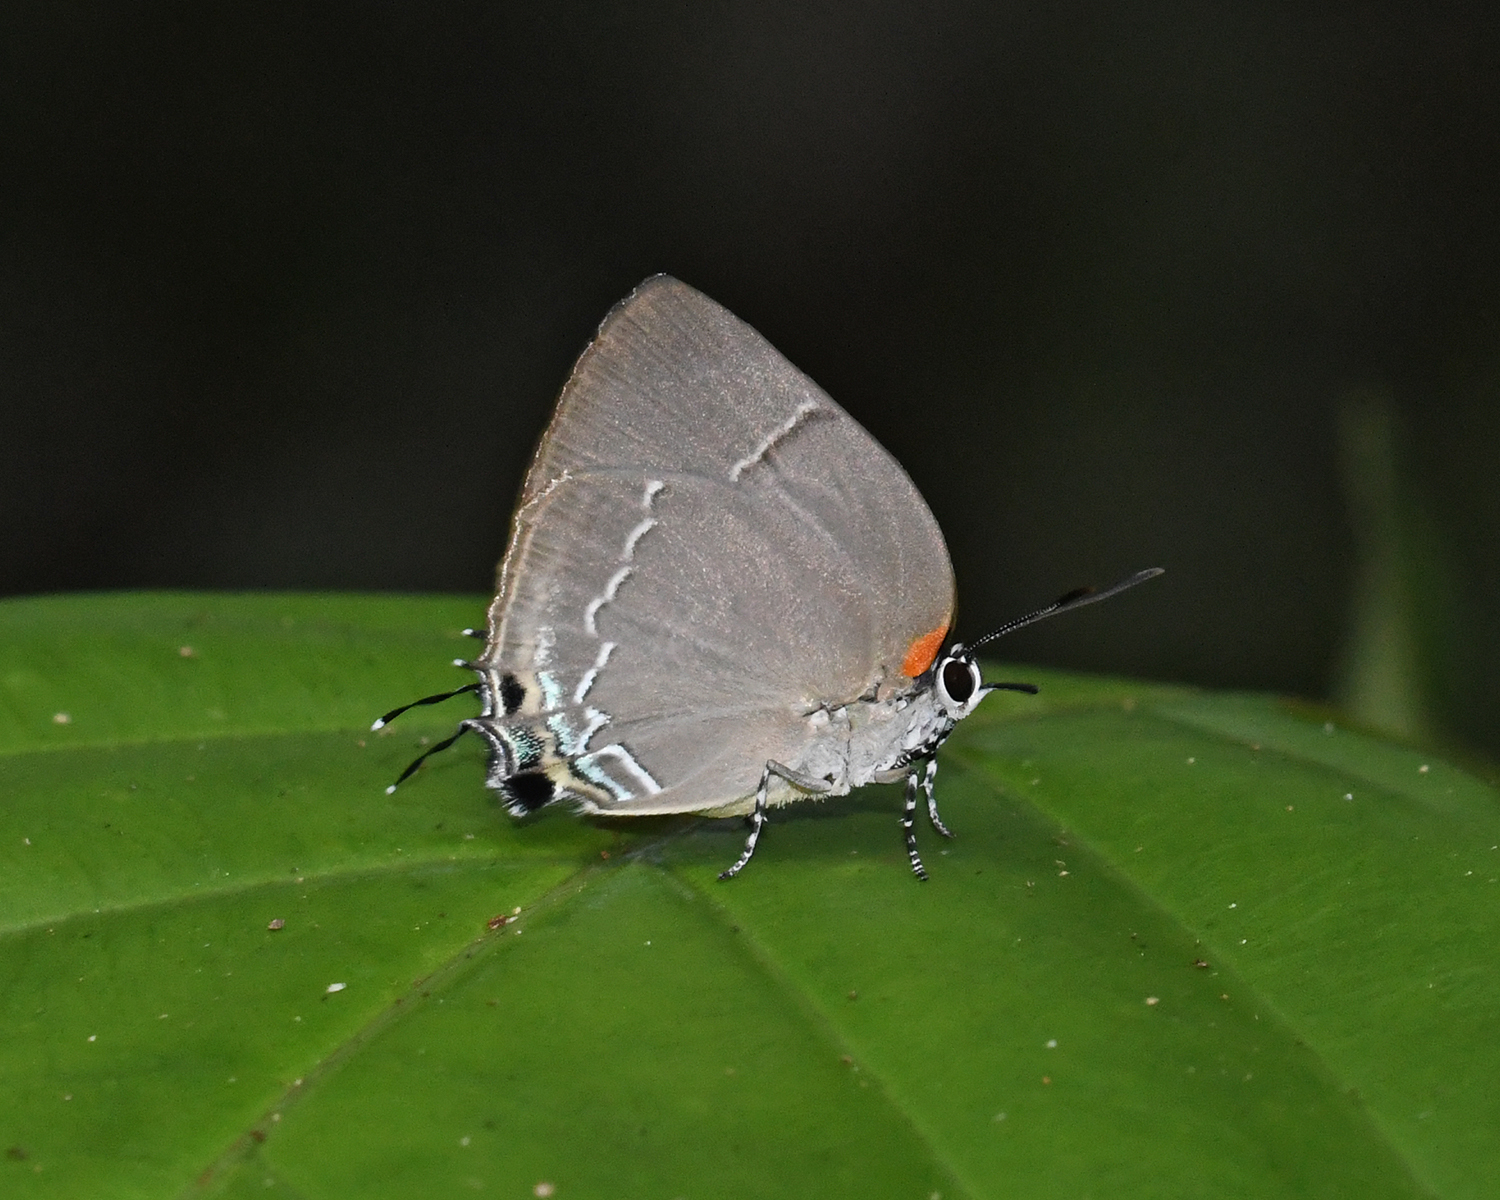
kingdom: Animalia
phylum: Arthropoda
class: Insecta
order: Lepidoptera
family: Lycaenidae
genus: Panthiades
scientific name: Panthiades bitias
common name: Bitias hairstreak
